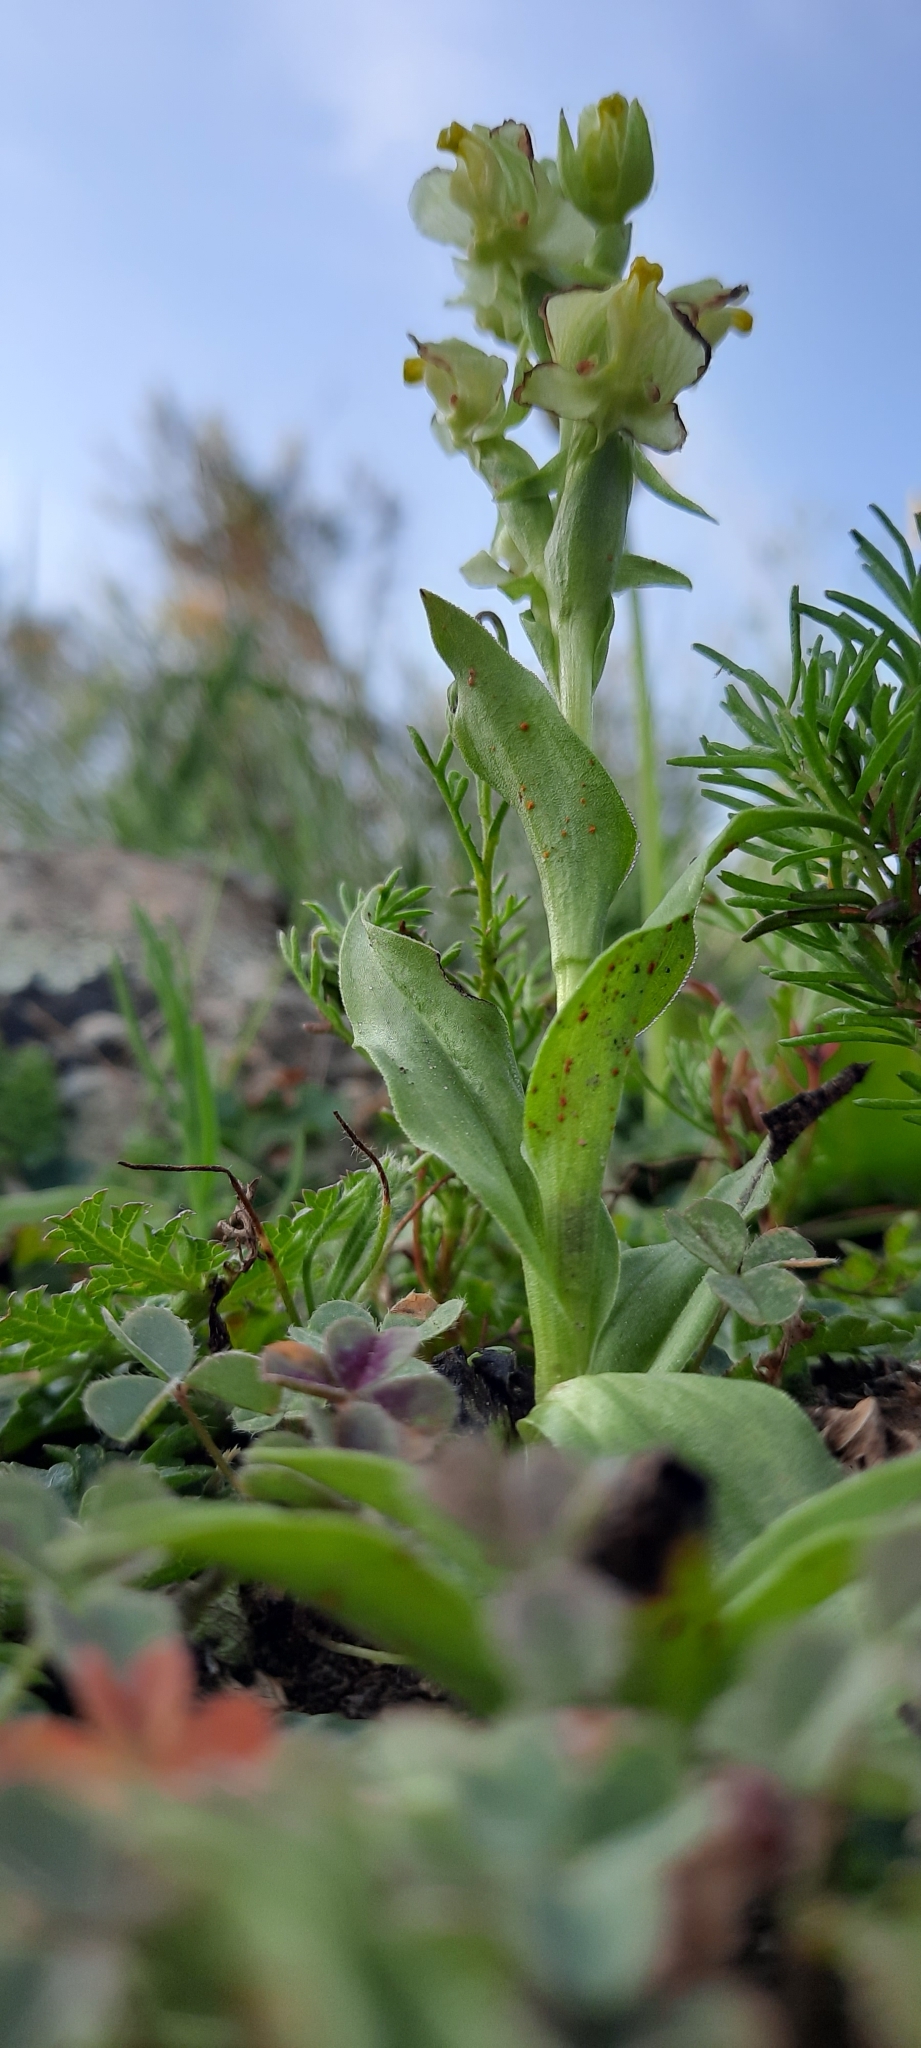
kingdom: Plantae
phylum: Tracheophyta
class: Liliopsida
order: Asparagales
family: Orchidaceae
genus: Pterygodium
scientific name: Pterygodium alatum
